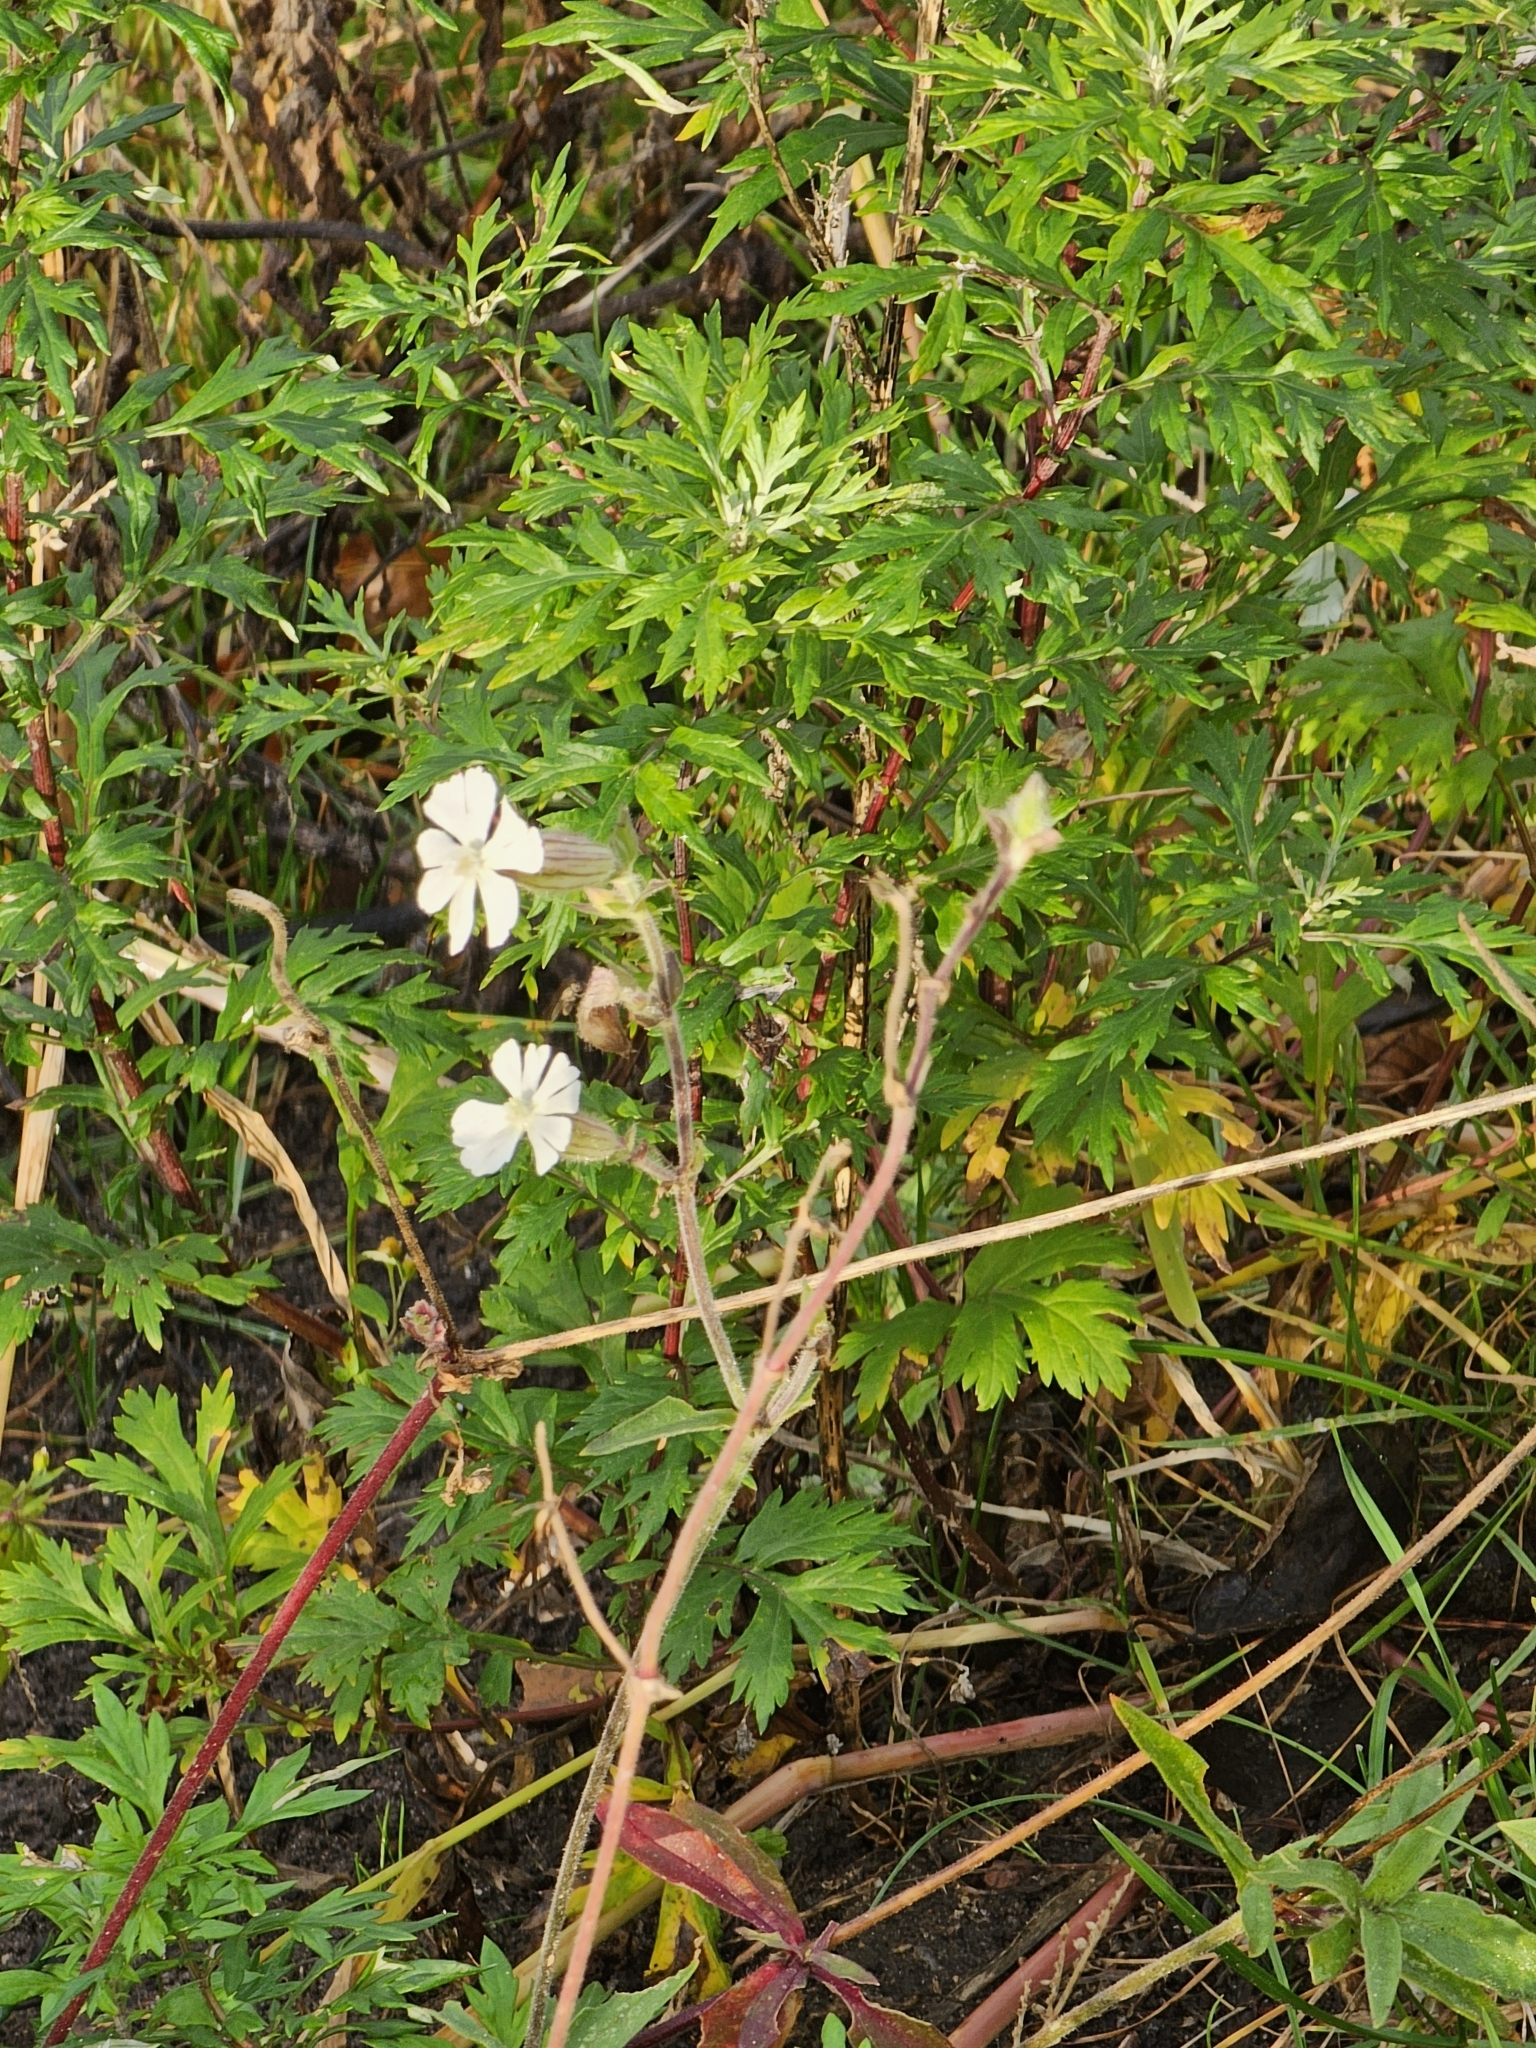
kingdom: Plantae
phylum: Tracheophyta
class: Magnoliopsida
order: Caryophyllales
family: Caryophyllaceae
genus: Silene
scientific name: Silene latifolia
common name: White campion
